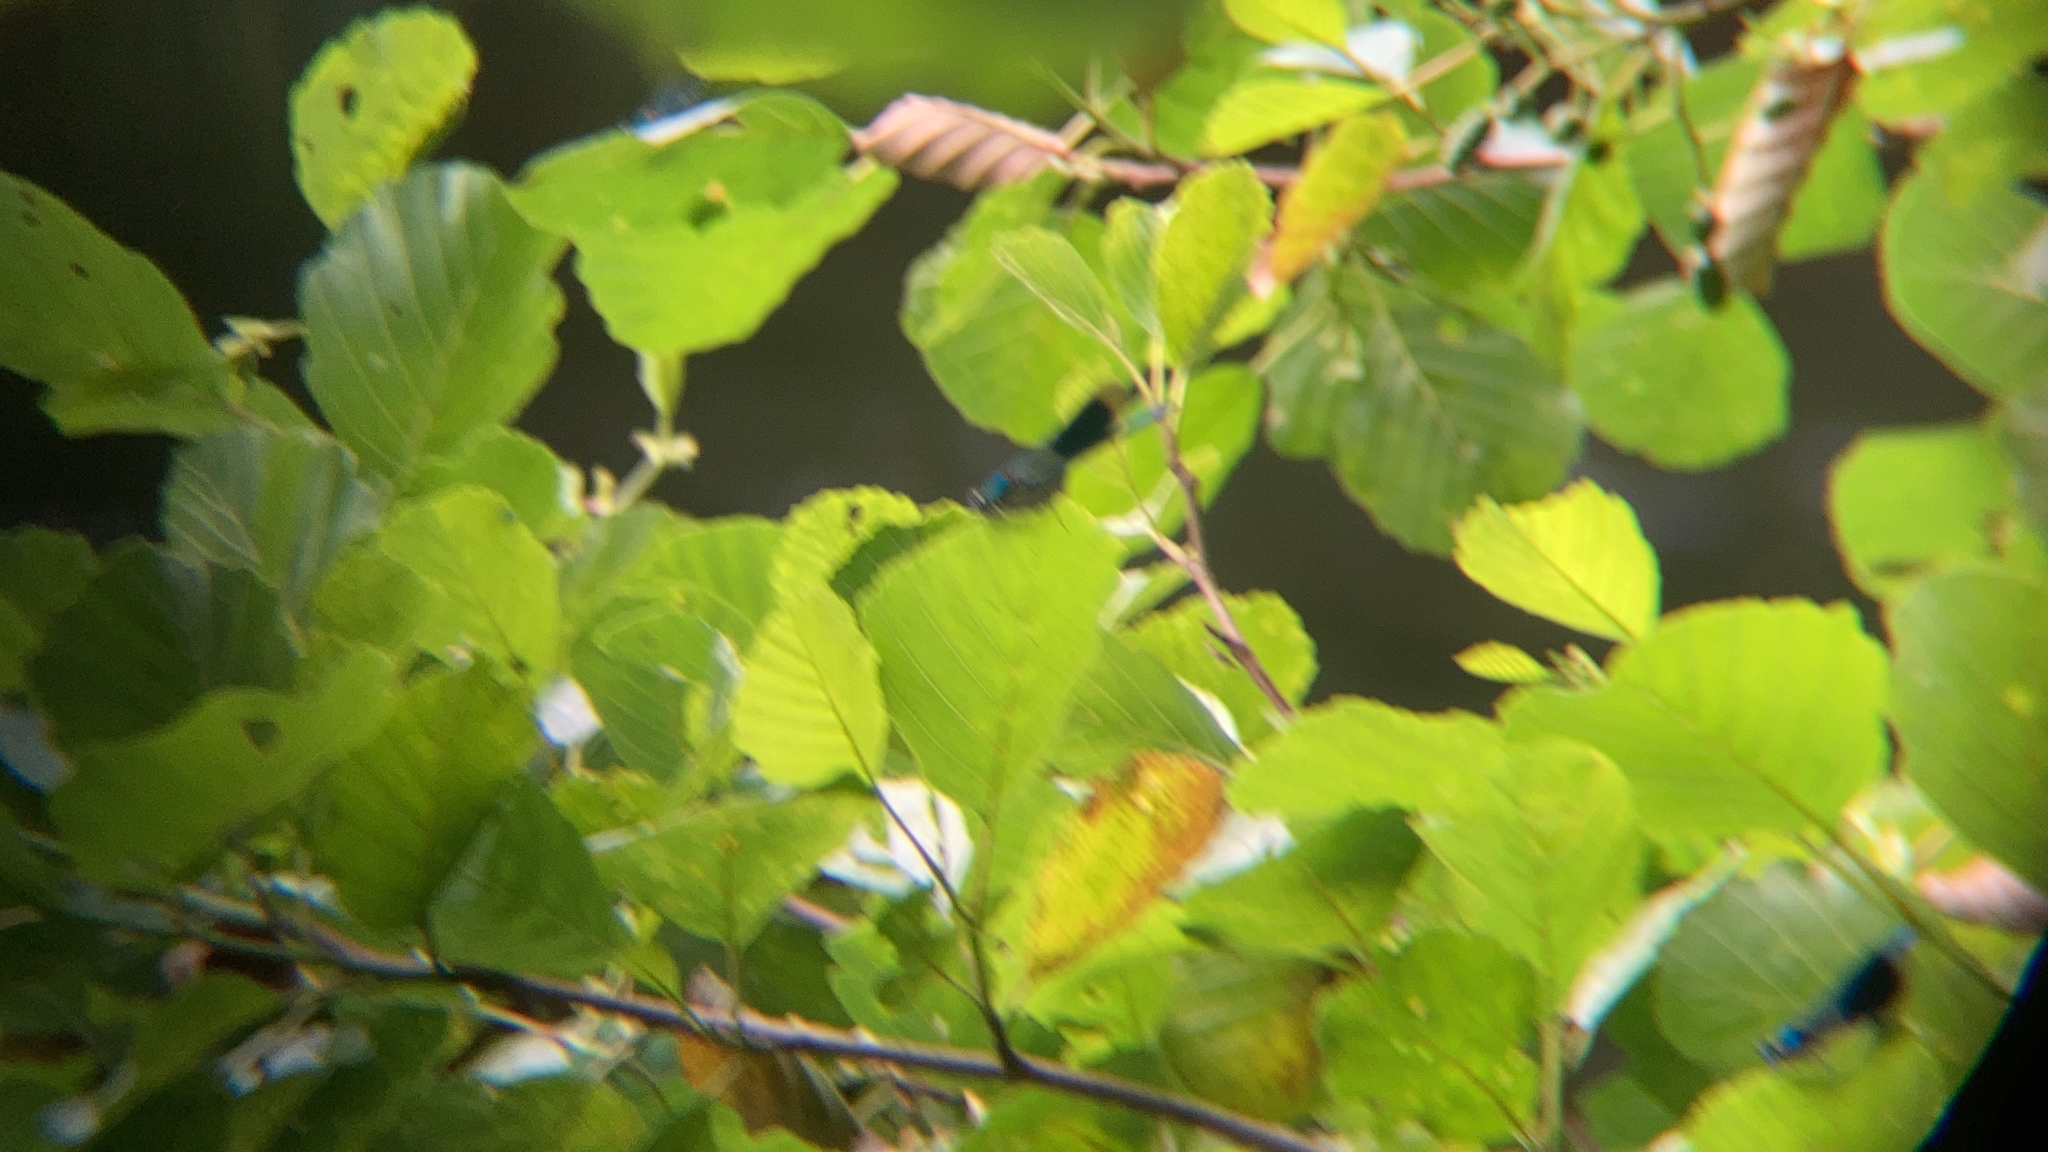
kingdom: Animalia
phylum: Arthropoda
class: Insecta
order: Odonata
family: Calopterygidae
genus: Calopteryx
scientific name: Calopteryx splendens
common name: Banded demoiselle
